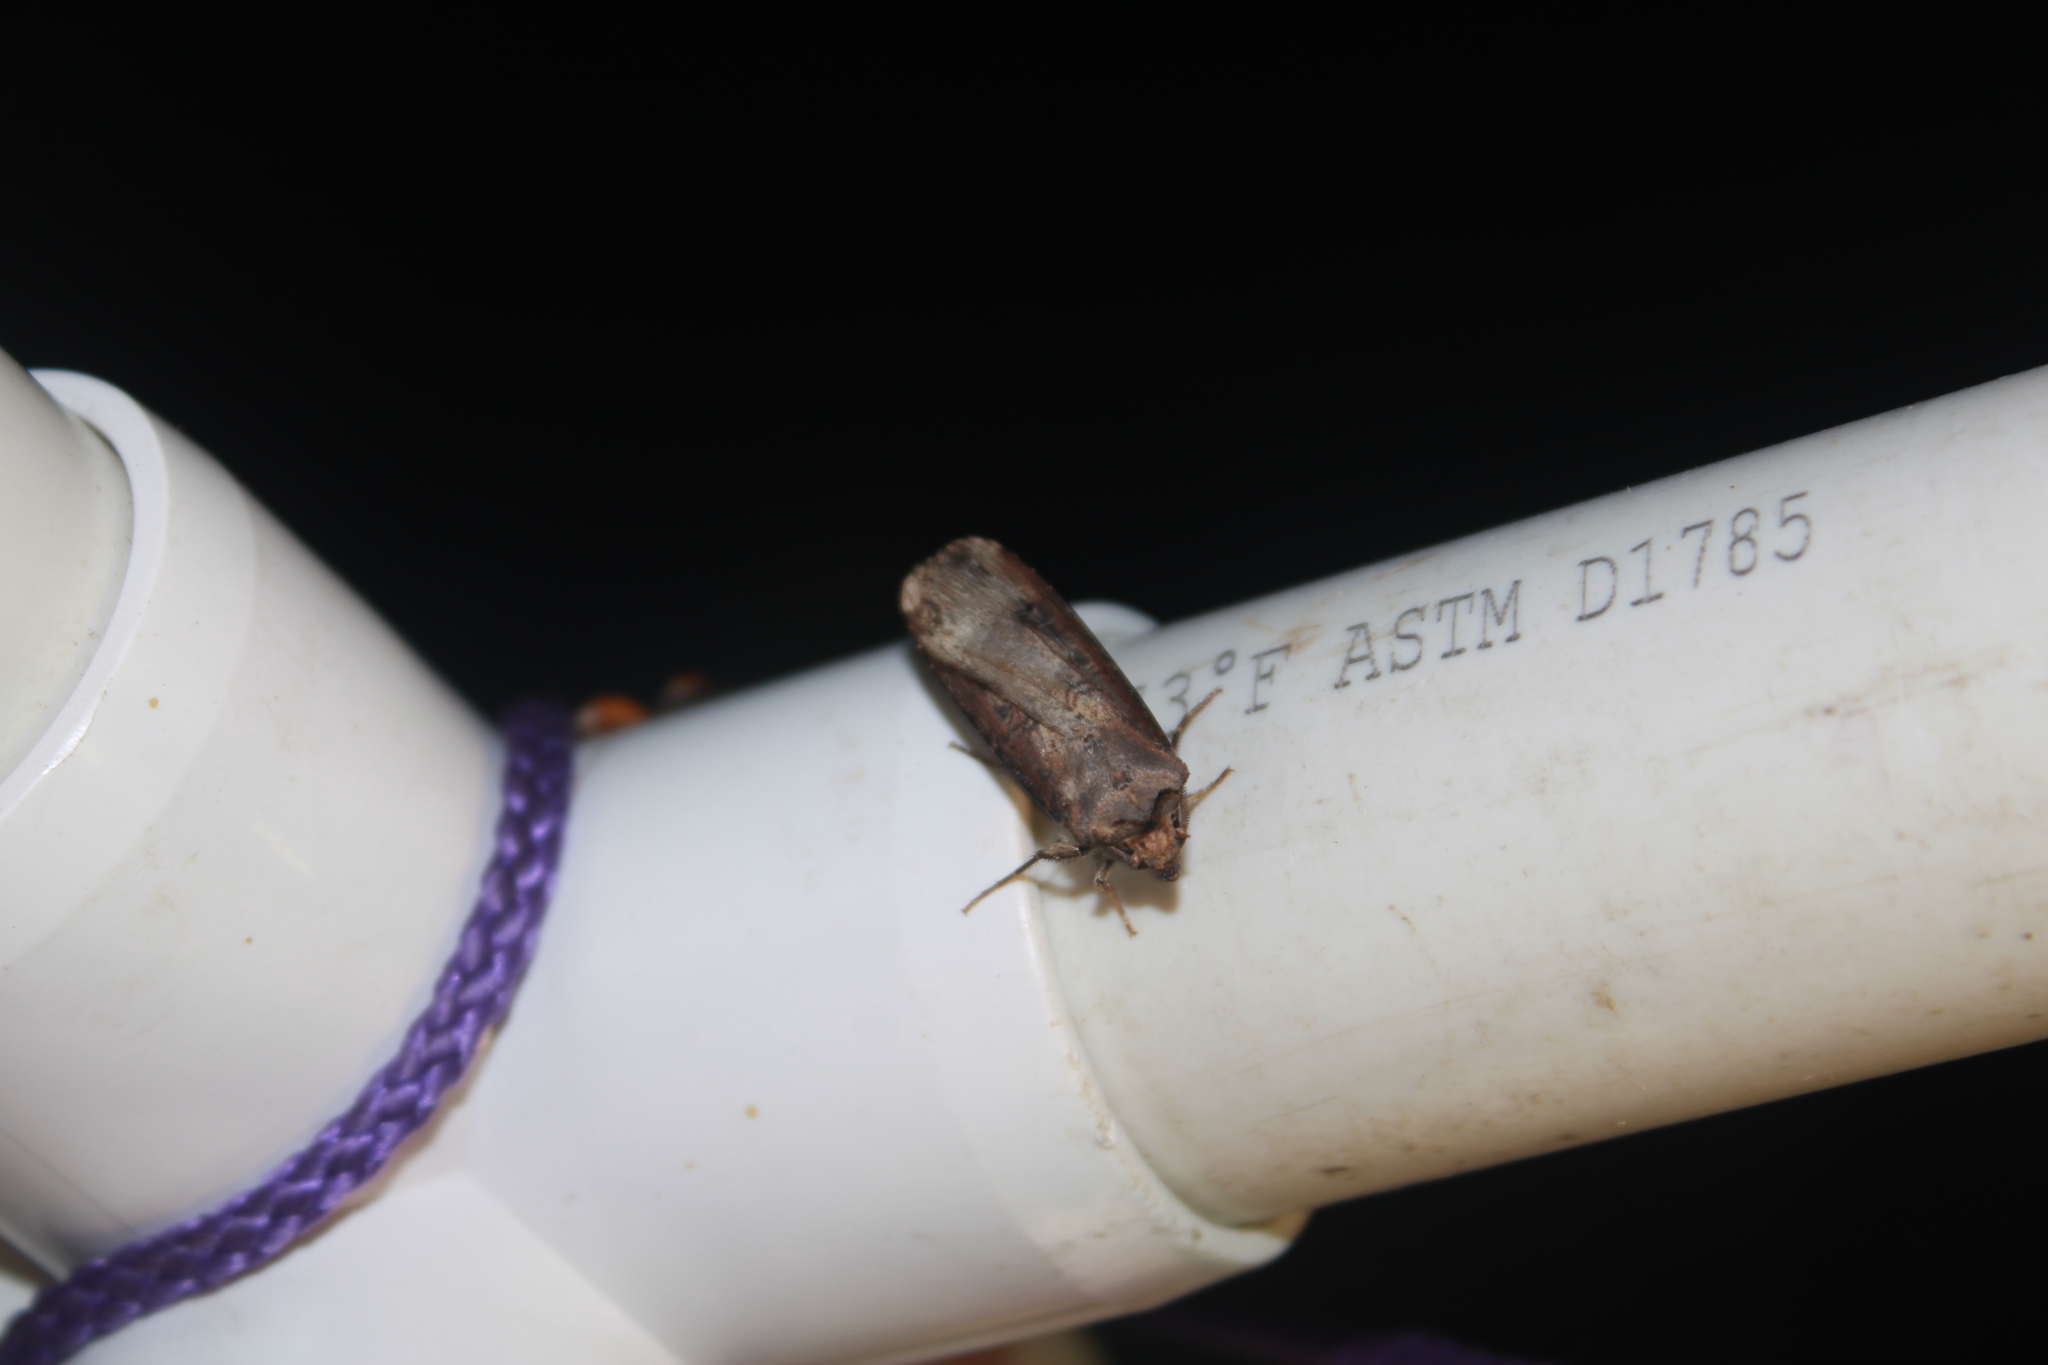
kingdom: Animalia
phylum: Arthropoda
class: Insecta
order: Lepidoptera
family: Noctuidae
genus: Agrotis
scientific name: Agrotis ipsilon
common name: Dark sword-grass
